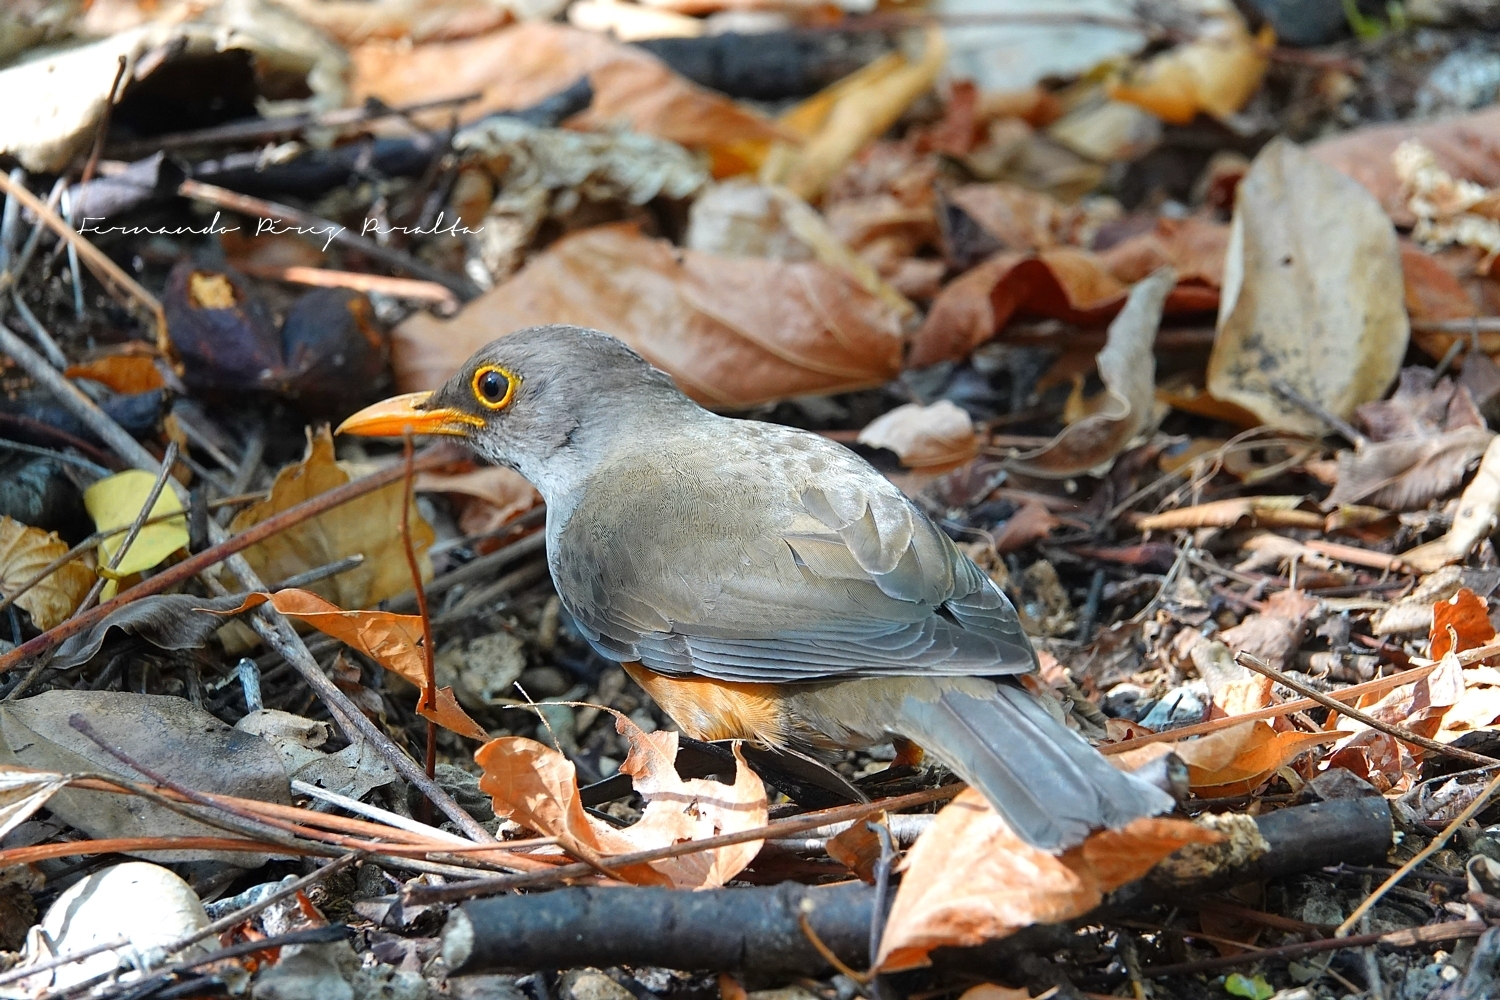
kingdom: Animalia
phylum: Chordata
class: Aves
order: Passeriformes
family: Turdidae
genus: Turdus
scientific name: Turdus poliocephalus
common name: Island thrush
